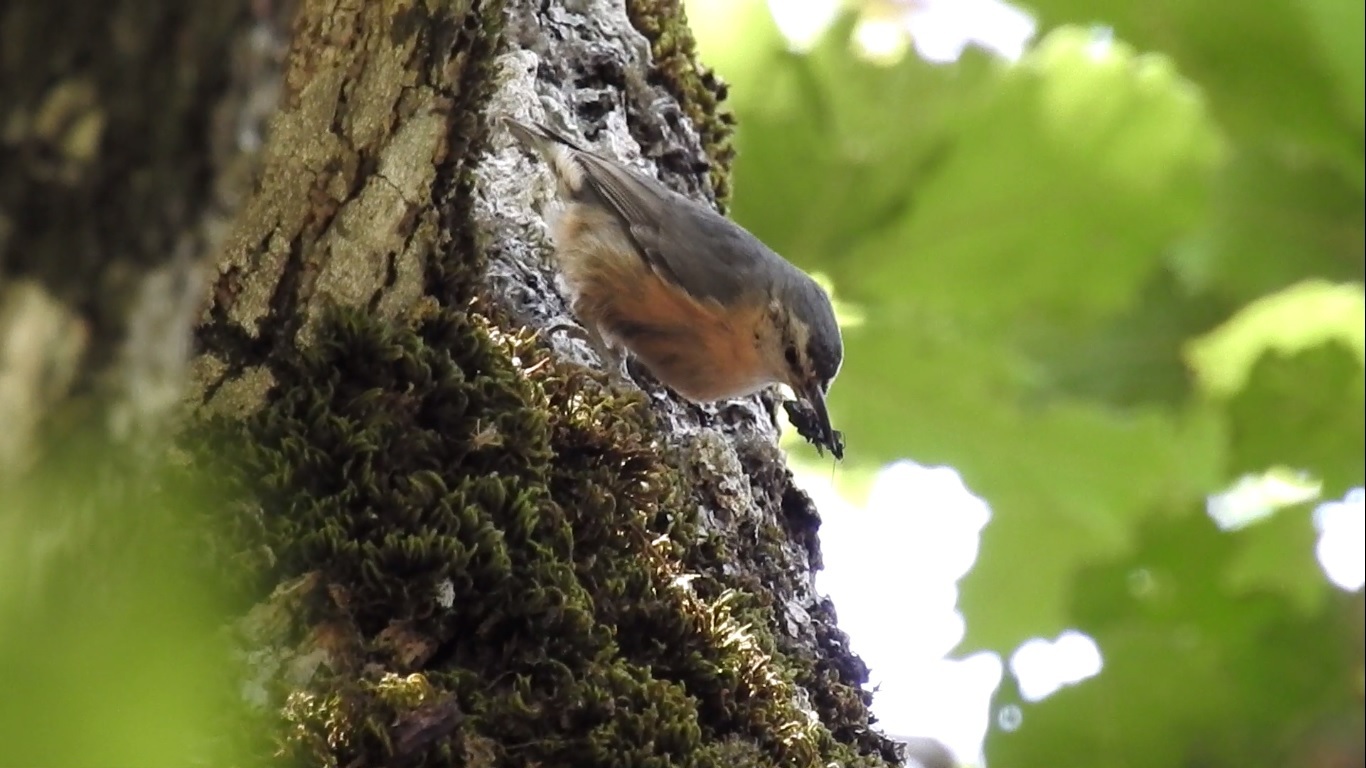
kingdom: Animalia
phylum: Chordata
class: Aves
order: Passeriformes
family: Sittidae
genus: Sitta
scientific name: Sitta ledanti
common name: Algerian nuthatch
